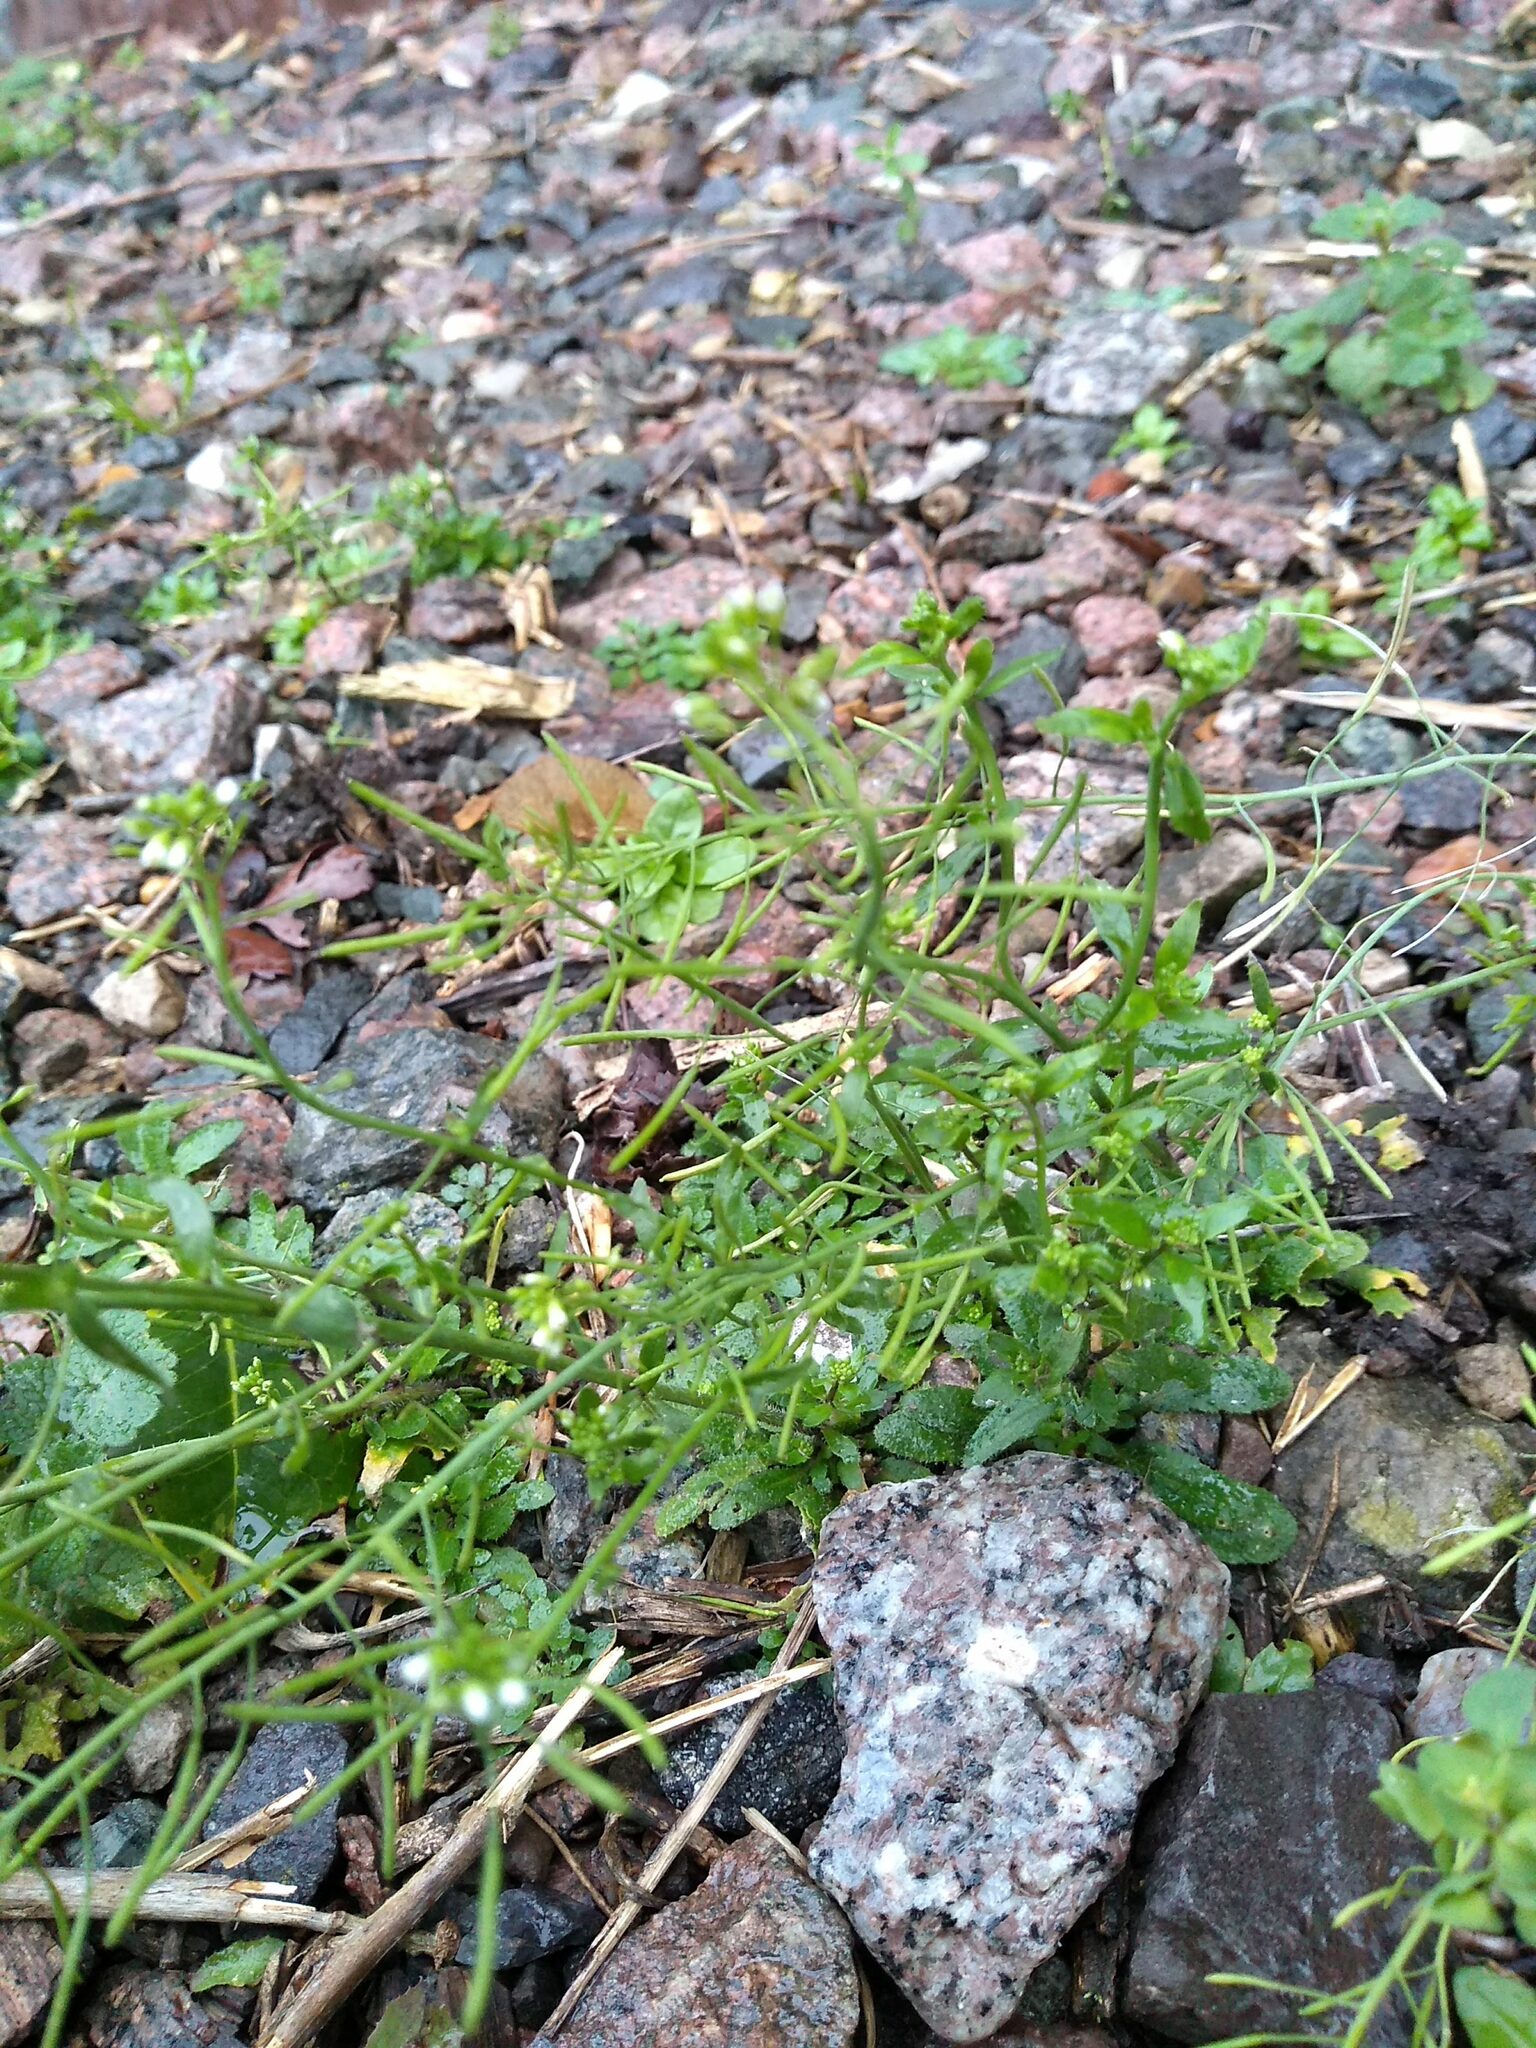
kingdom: Plantae
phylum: Tracheophyta
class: Magnoliopsida
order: Brassicales
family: Brassicaceae
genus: Arabidopsis
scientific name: Arabidopsis thaliana
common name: Thale cress
